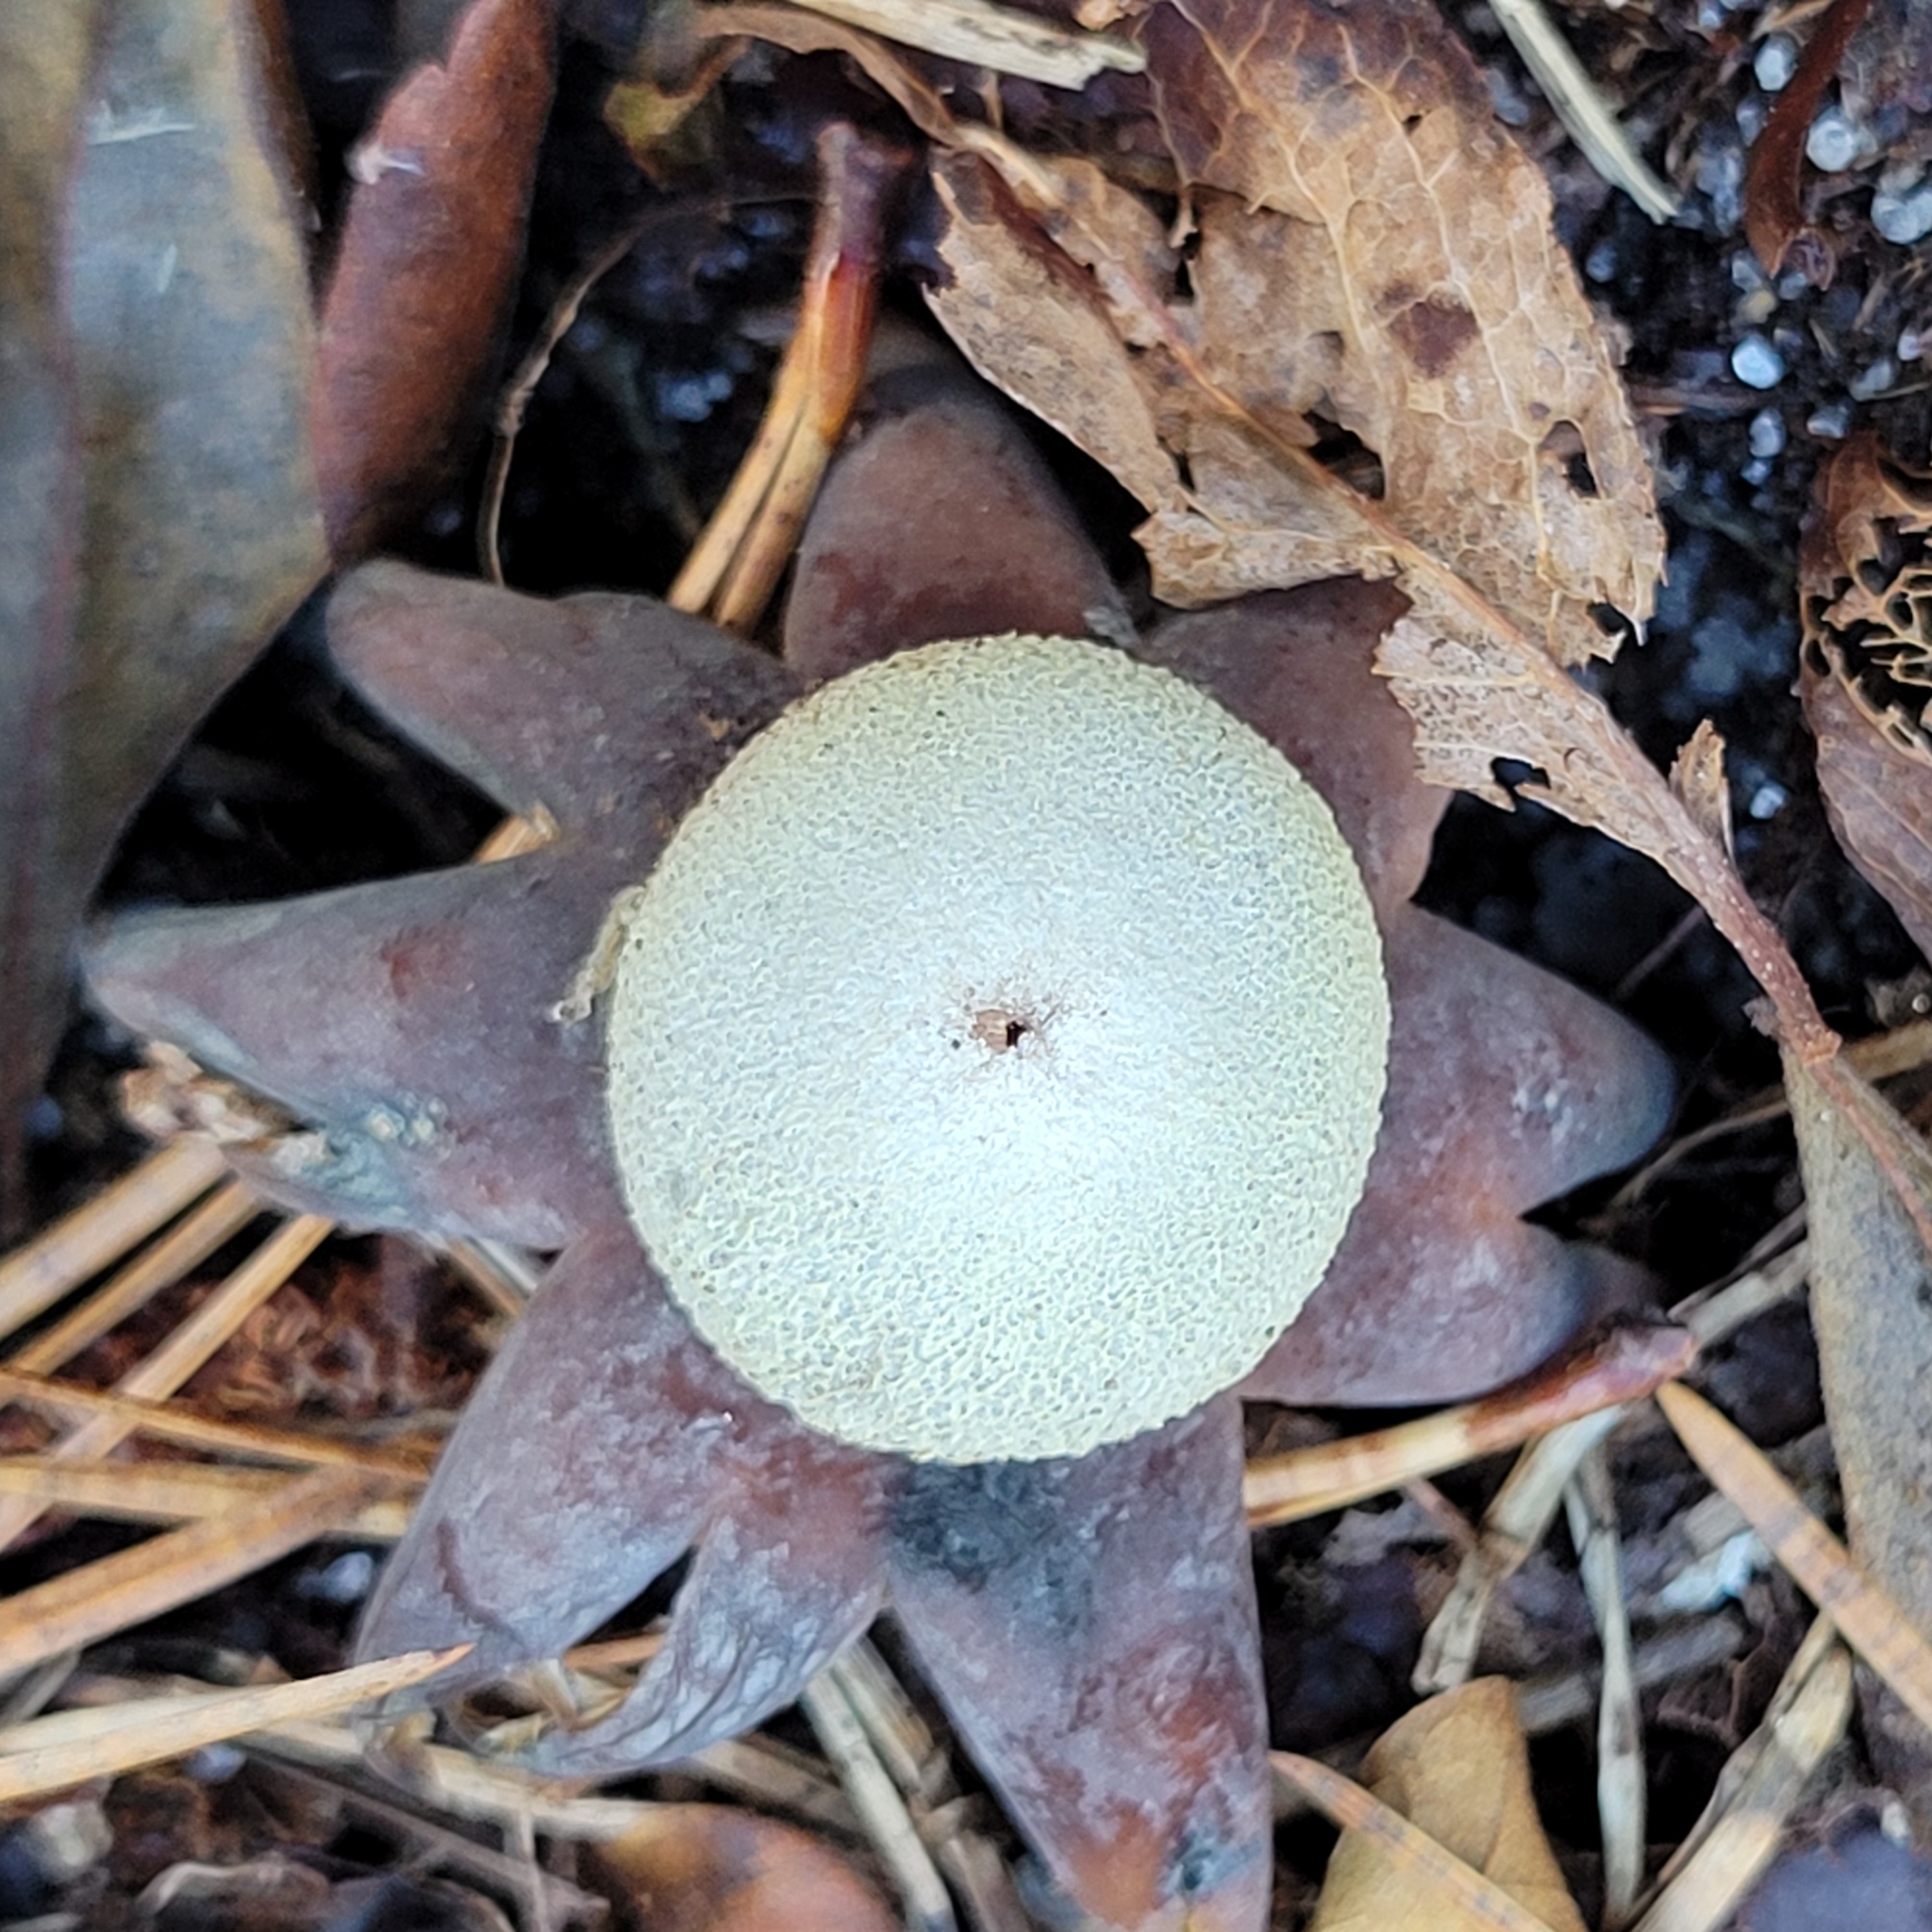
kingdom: Fungi
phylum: Basidiomycota
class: Agaricomycetes
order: Boletales
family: Diplocystidiaceae
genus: Astraeus
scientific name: Astraeus hygrometricus
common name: Barometer earthstar
